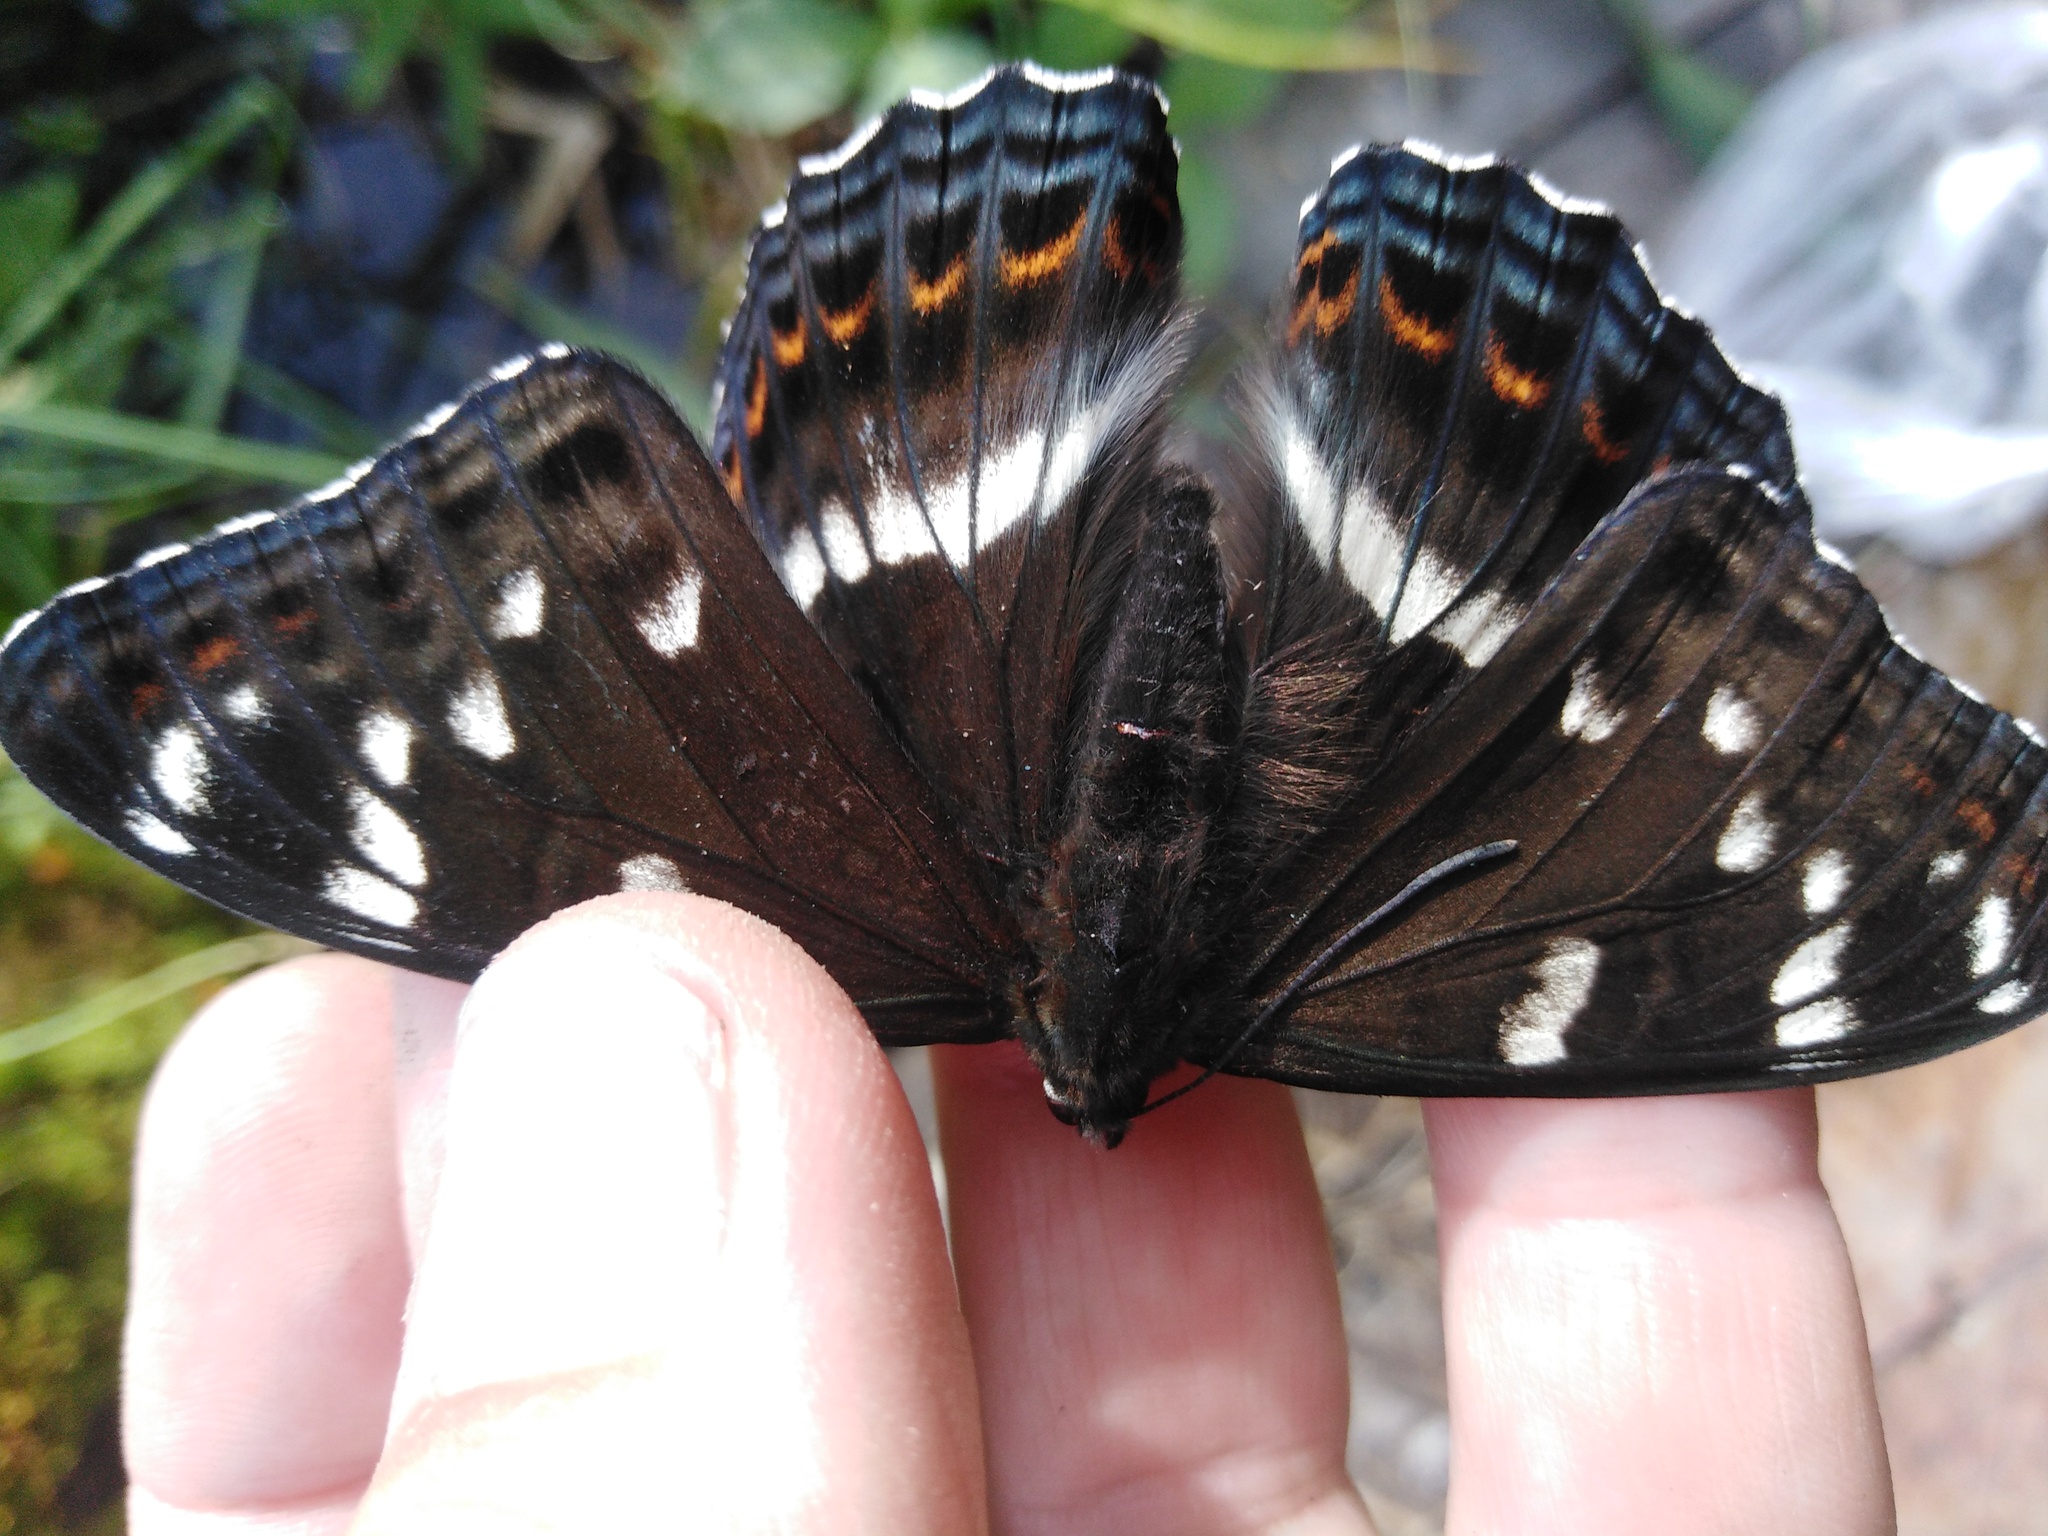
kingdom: Animalia
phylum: Arthropoda
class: Insecta
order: Lepidoptera
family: Nymphalidae
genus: Limenitis
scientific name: Limenitis populi
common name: Poplar admiral
